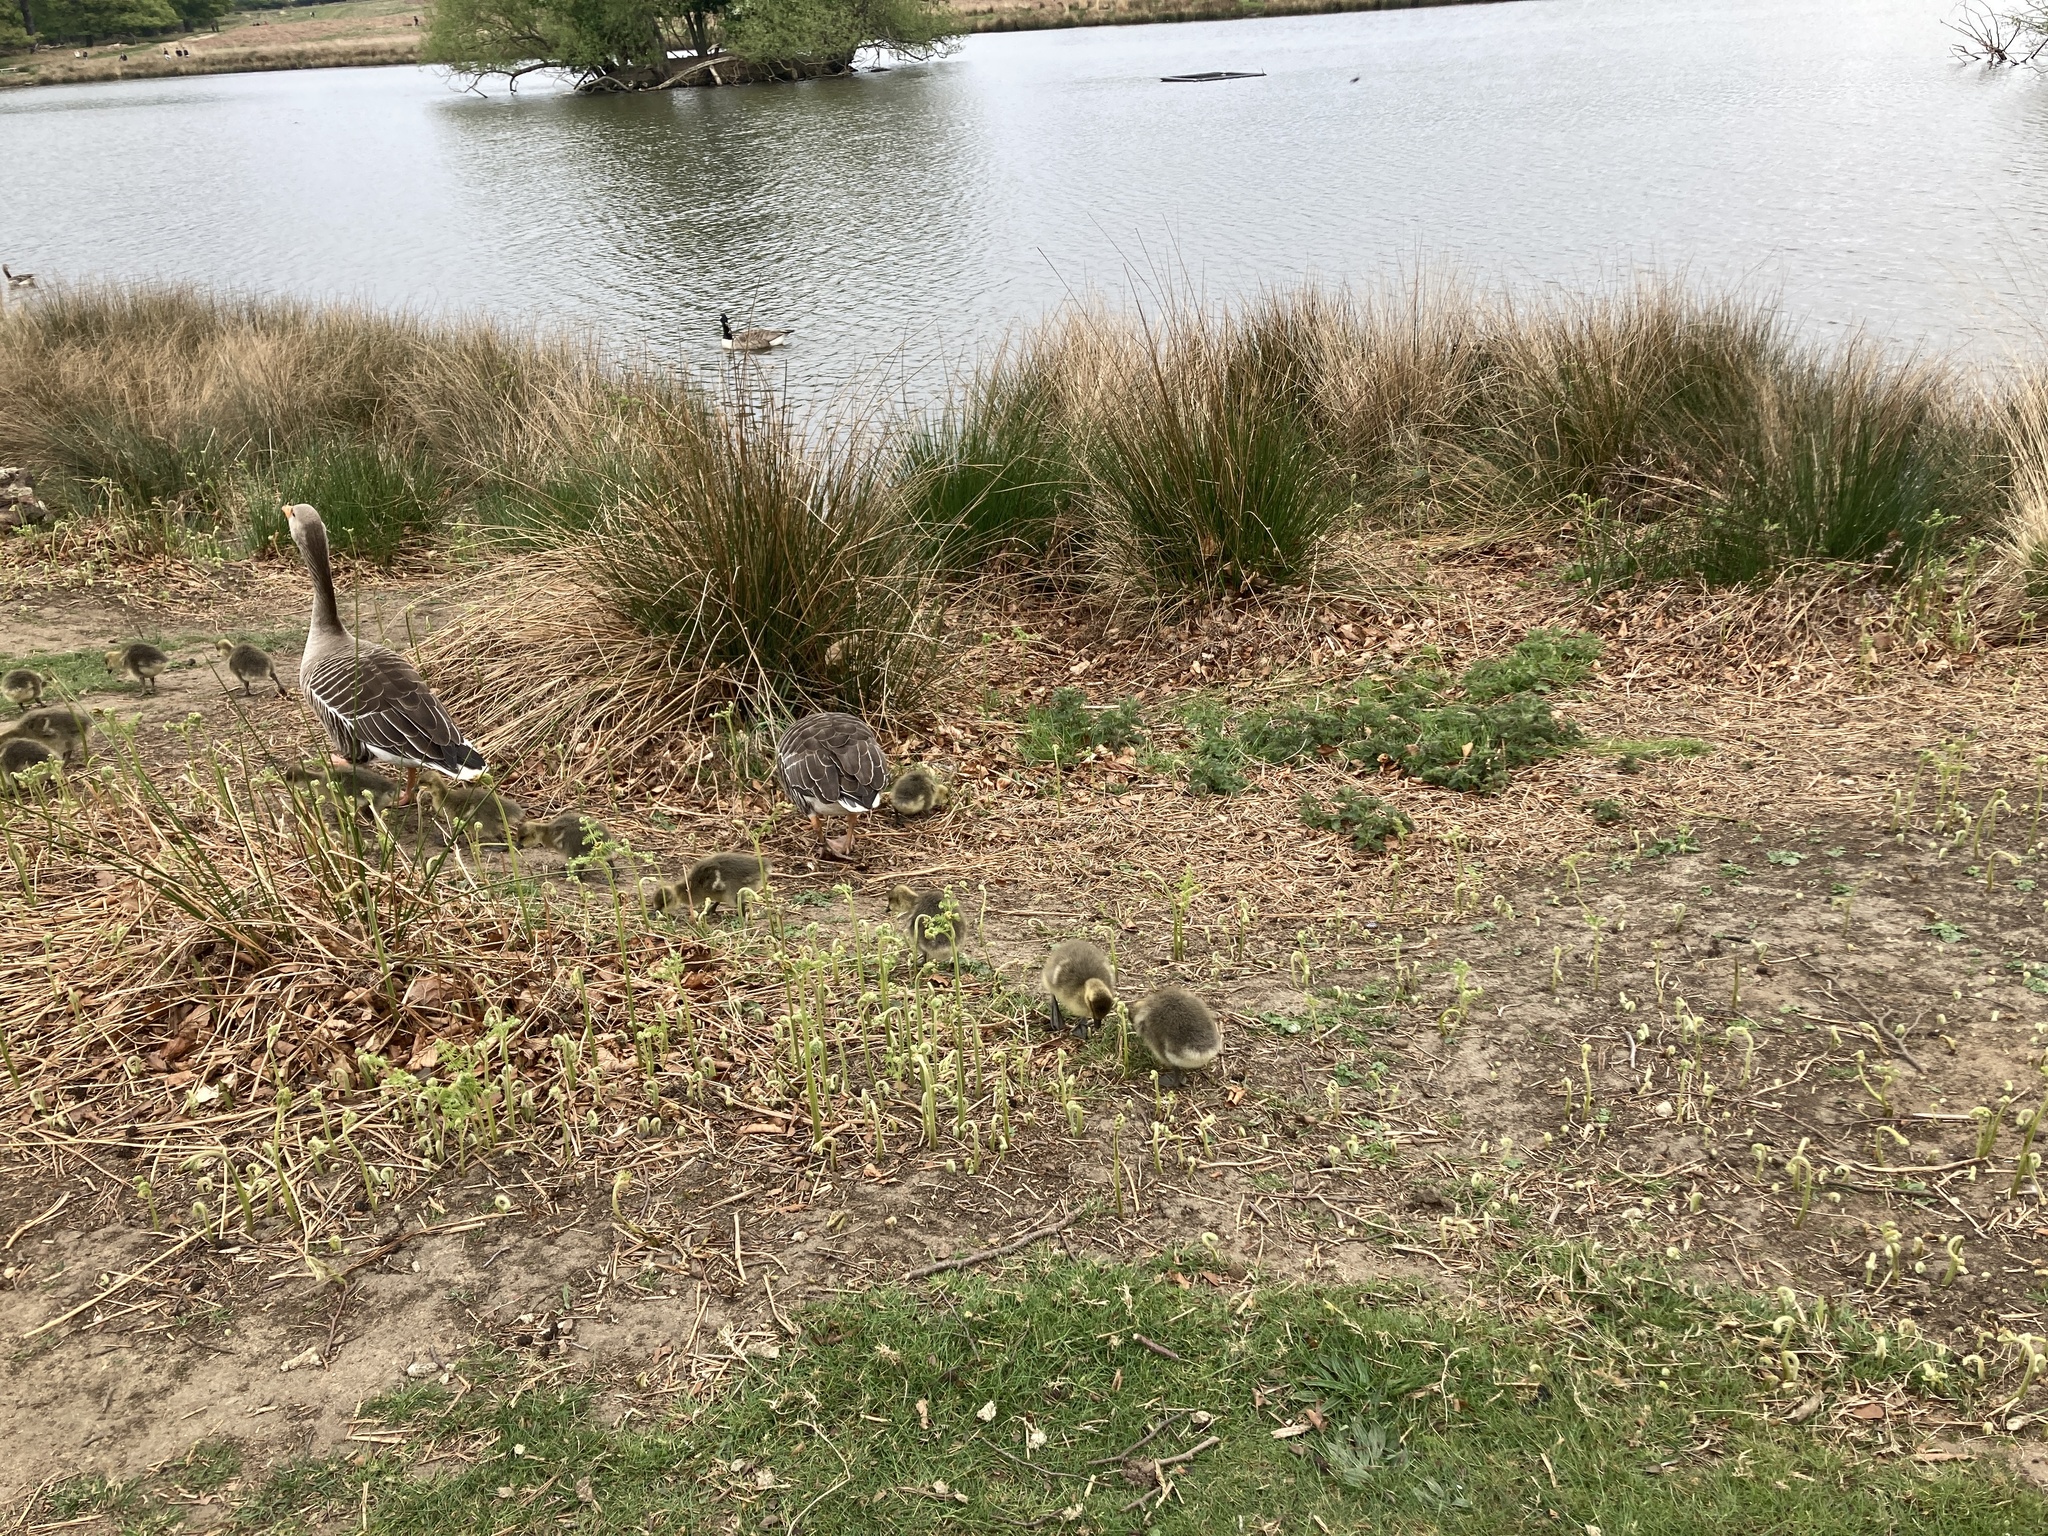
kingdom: Animalia
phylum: Chordata
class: Aves
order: Anseriformes
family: Anatidae
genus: Anser
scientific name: Anser anser
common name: Greylag goose
